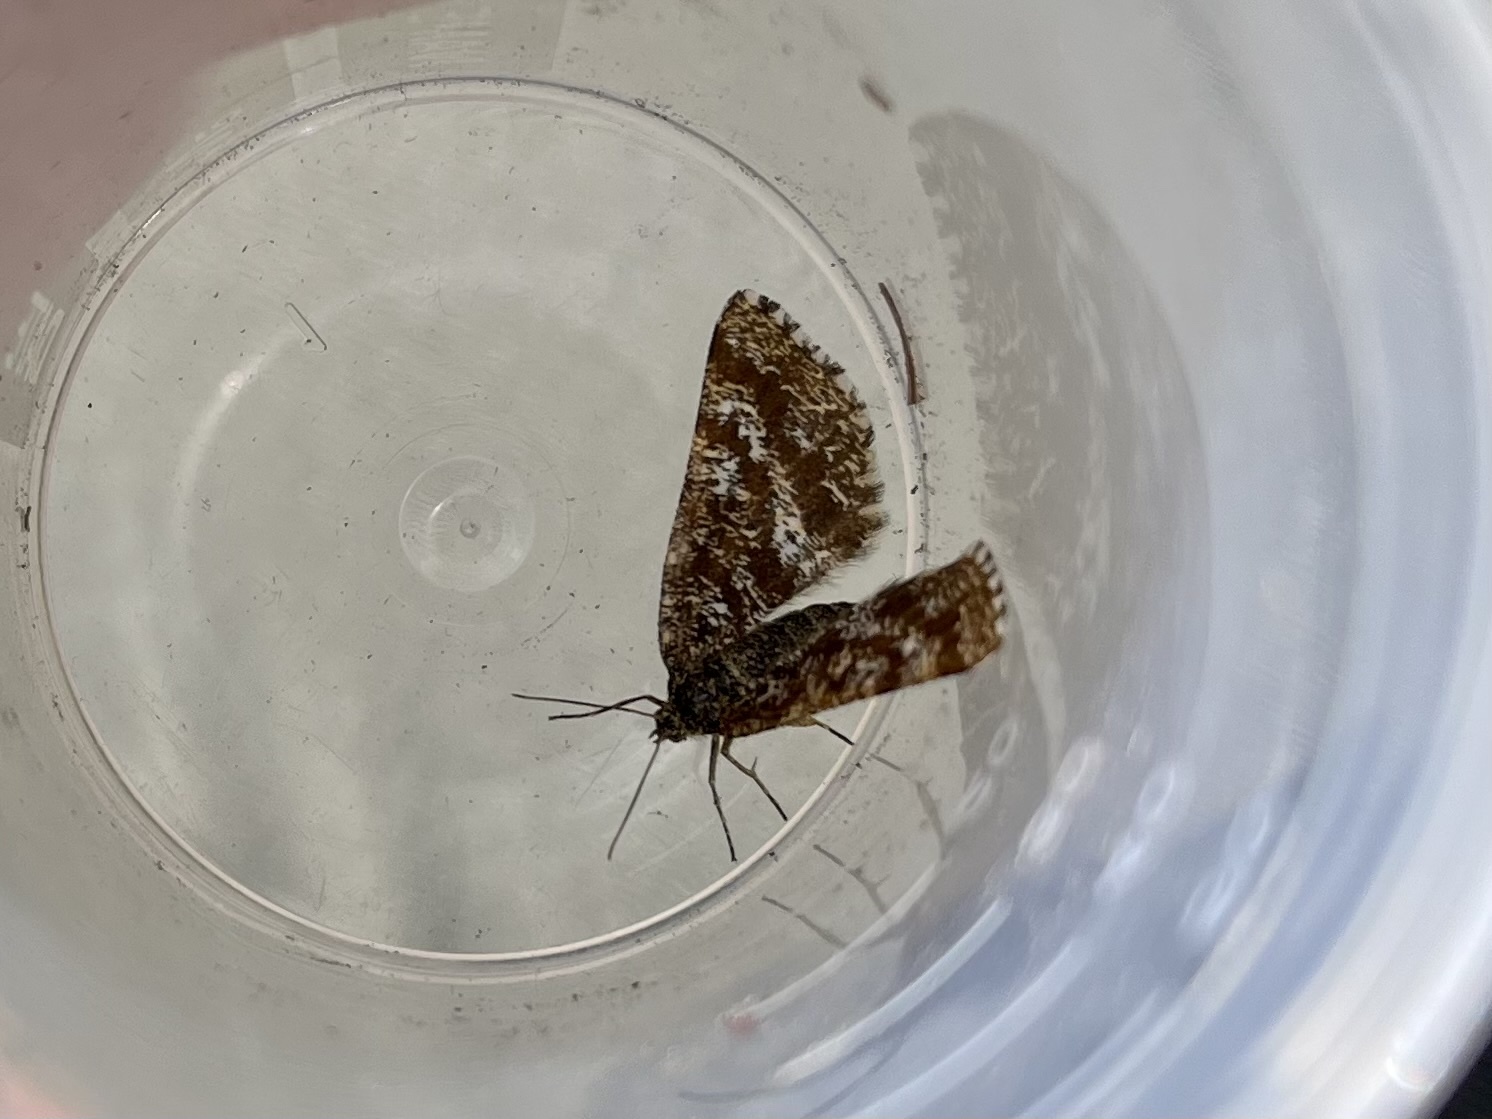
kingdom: Animalia
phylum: Arthropoda
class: Insecta
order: Lepidoptera
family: Geometridae
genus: Ematurga
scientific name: Ematurga atomaria
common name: Common heath
